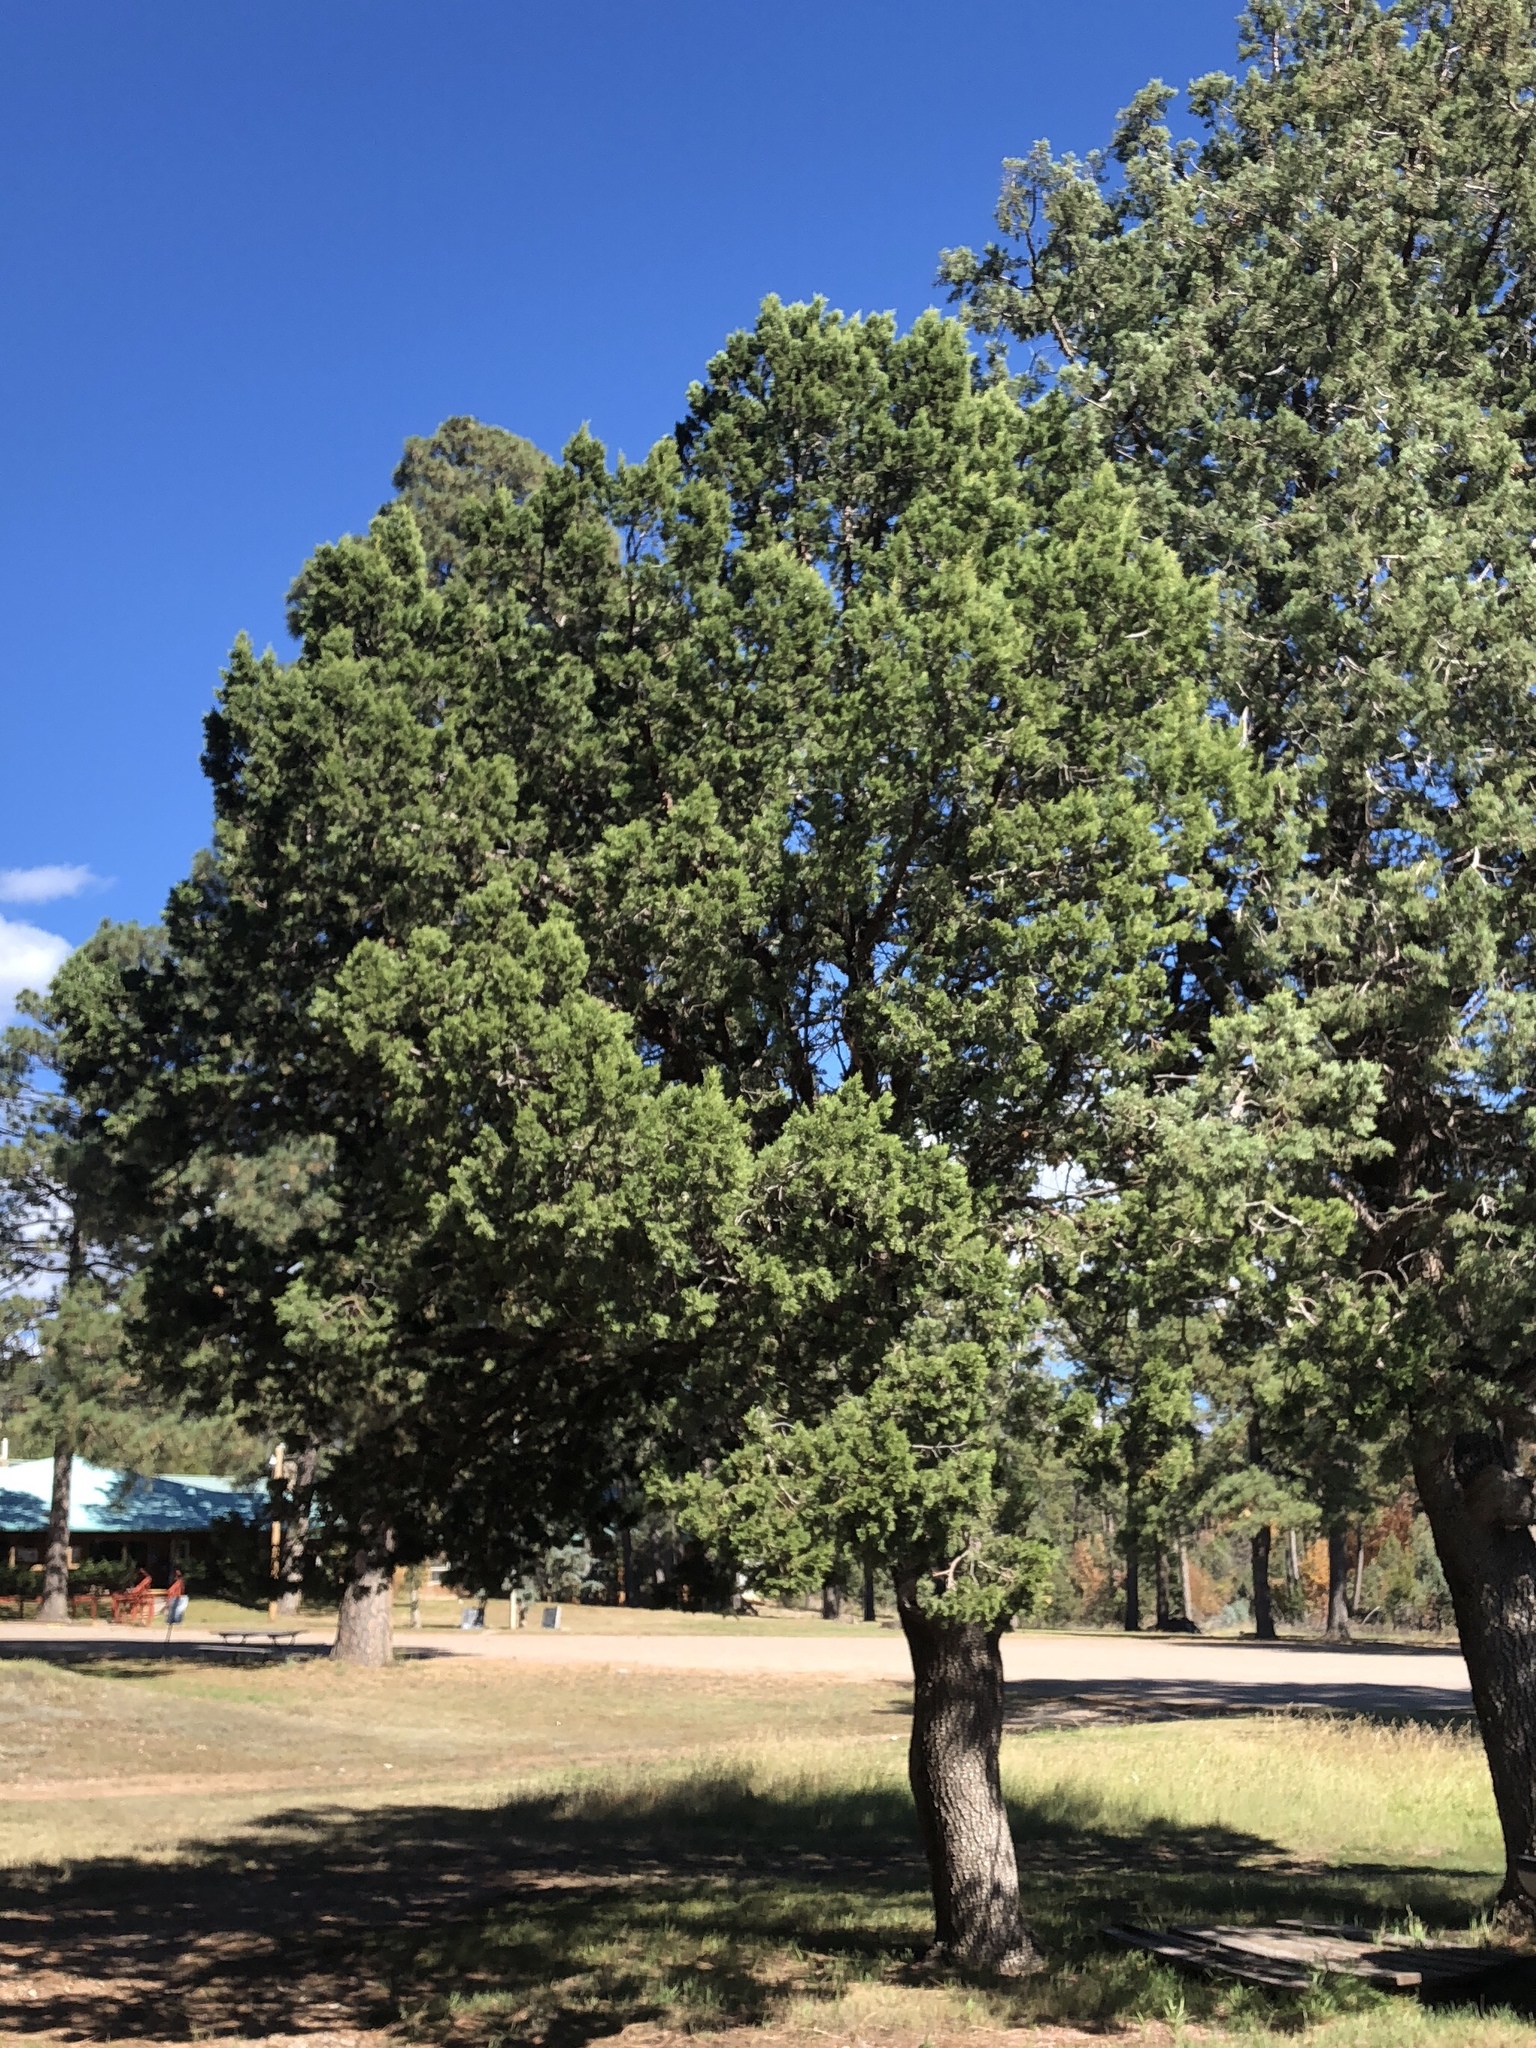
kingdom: Plantae
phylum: Tracheophyta
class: Pinopsida
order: Pinales
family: Cupressaceae
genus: Juniperus
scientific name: Juniperus deppeana
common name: Alligator juniper
